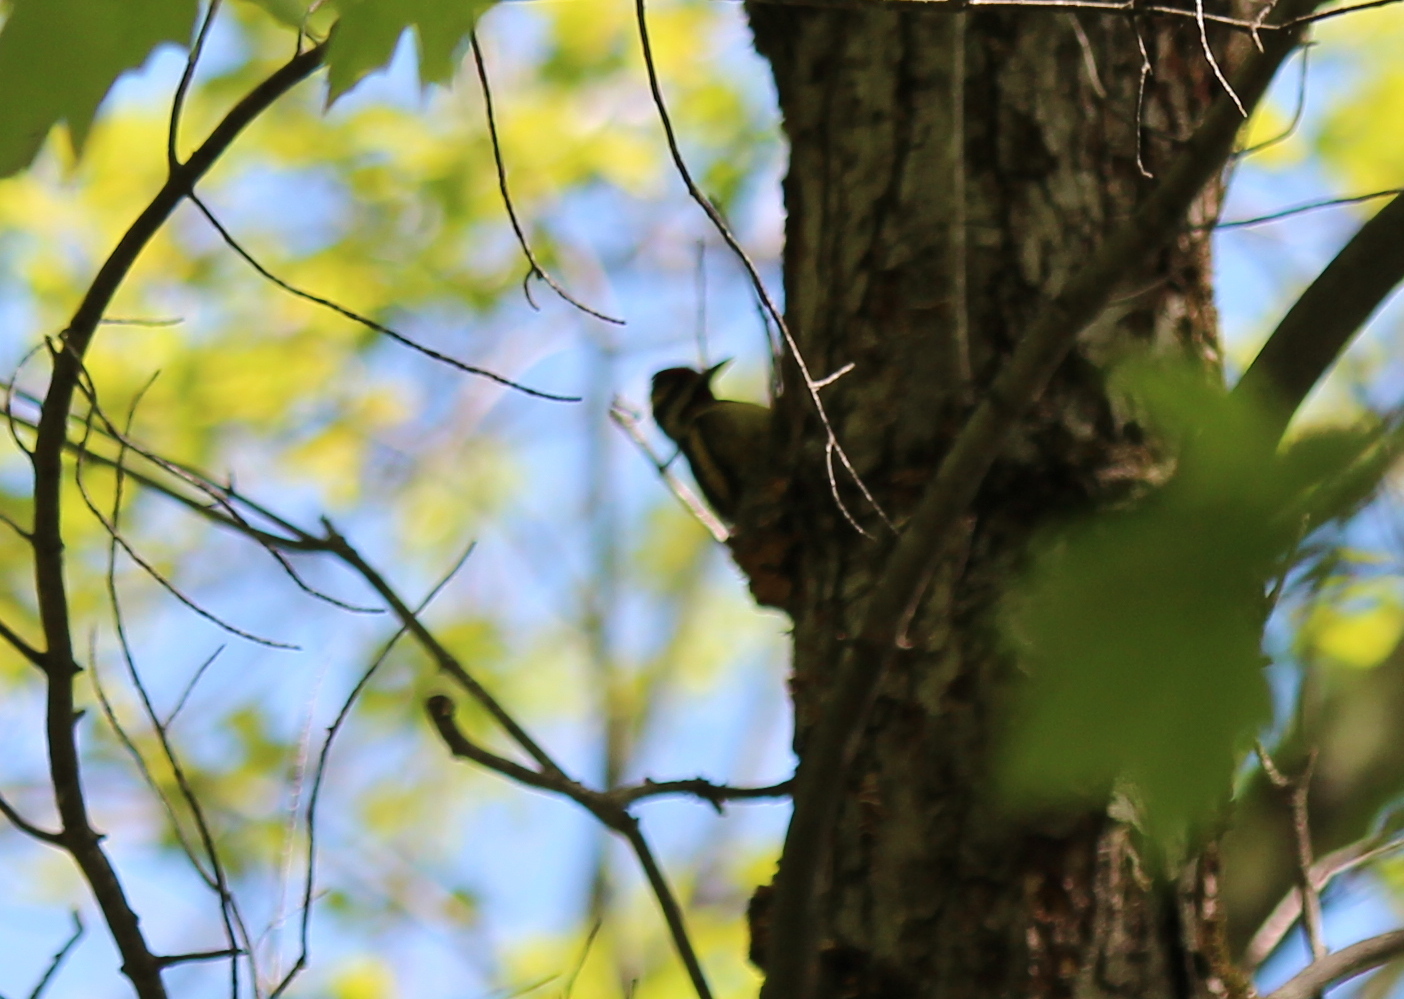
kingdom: Animalia
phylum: Chordata
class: Aves
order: Piciformes
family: Picidae
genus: Sphyrapicus
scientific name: Sphyrapicus varius
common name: Yellow-bellied sapsucker
